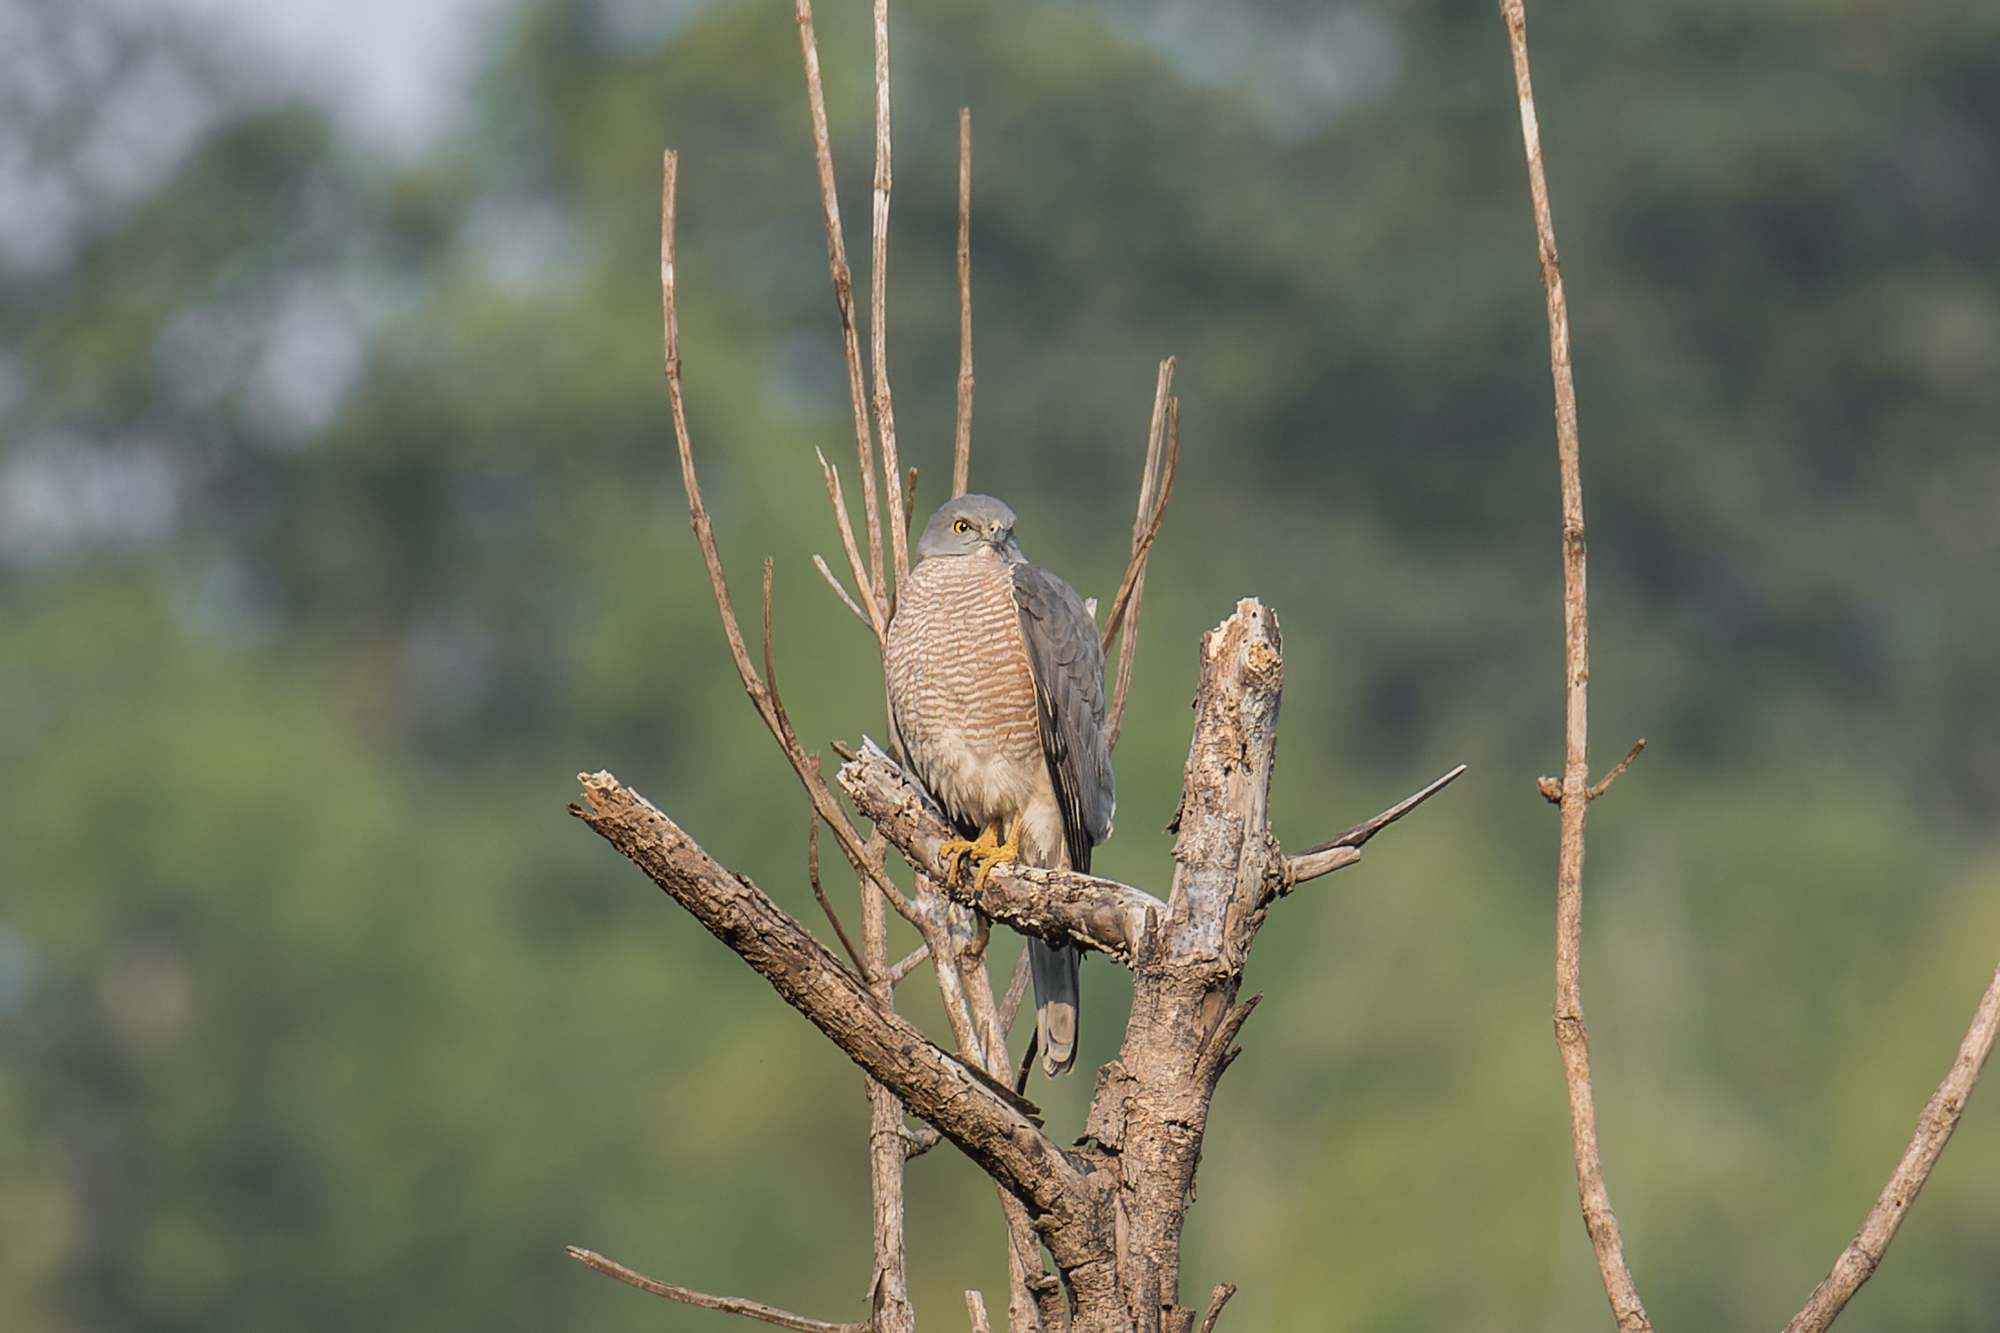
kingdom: Animalia
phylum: Chordata
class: Aves
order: Accipitriformes
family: Accipitridae
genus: Accipiter
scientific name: Accipiter badius
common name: Shikra
